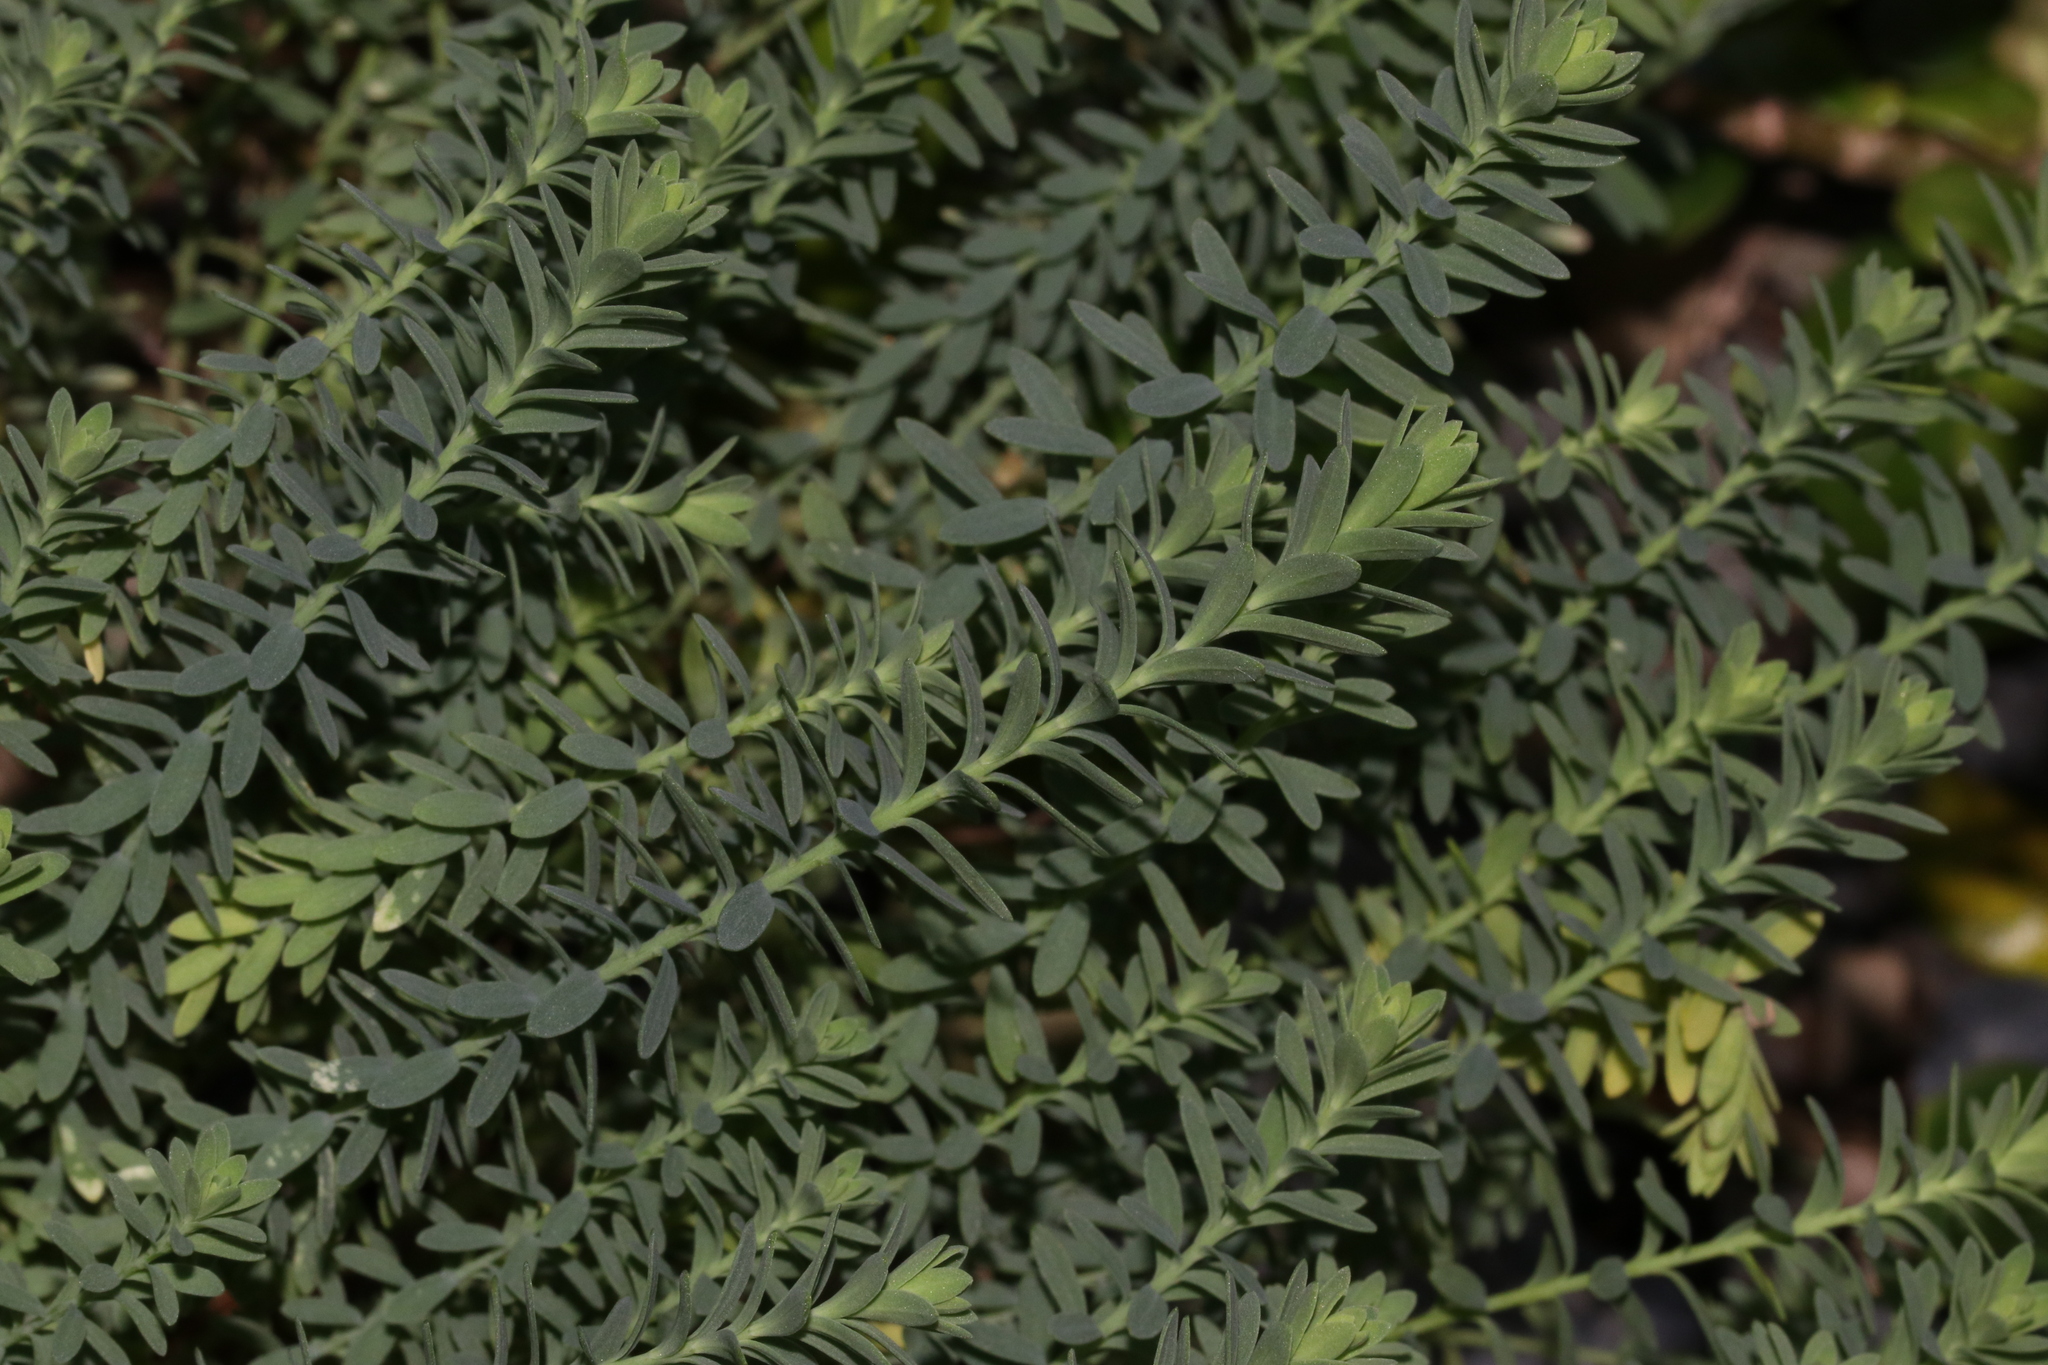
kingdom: Plantae
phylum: Tracheophyta
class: Magnoliopsida
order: Malpighiales
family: Linaceae
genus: Linum
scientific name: Linum monogynum
